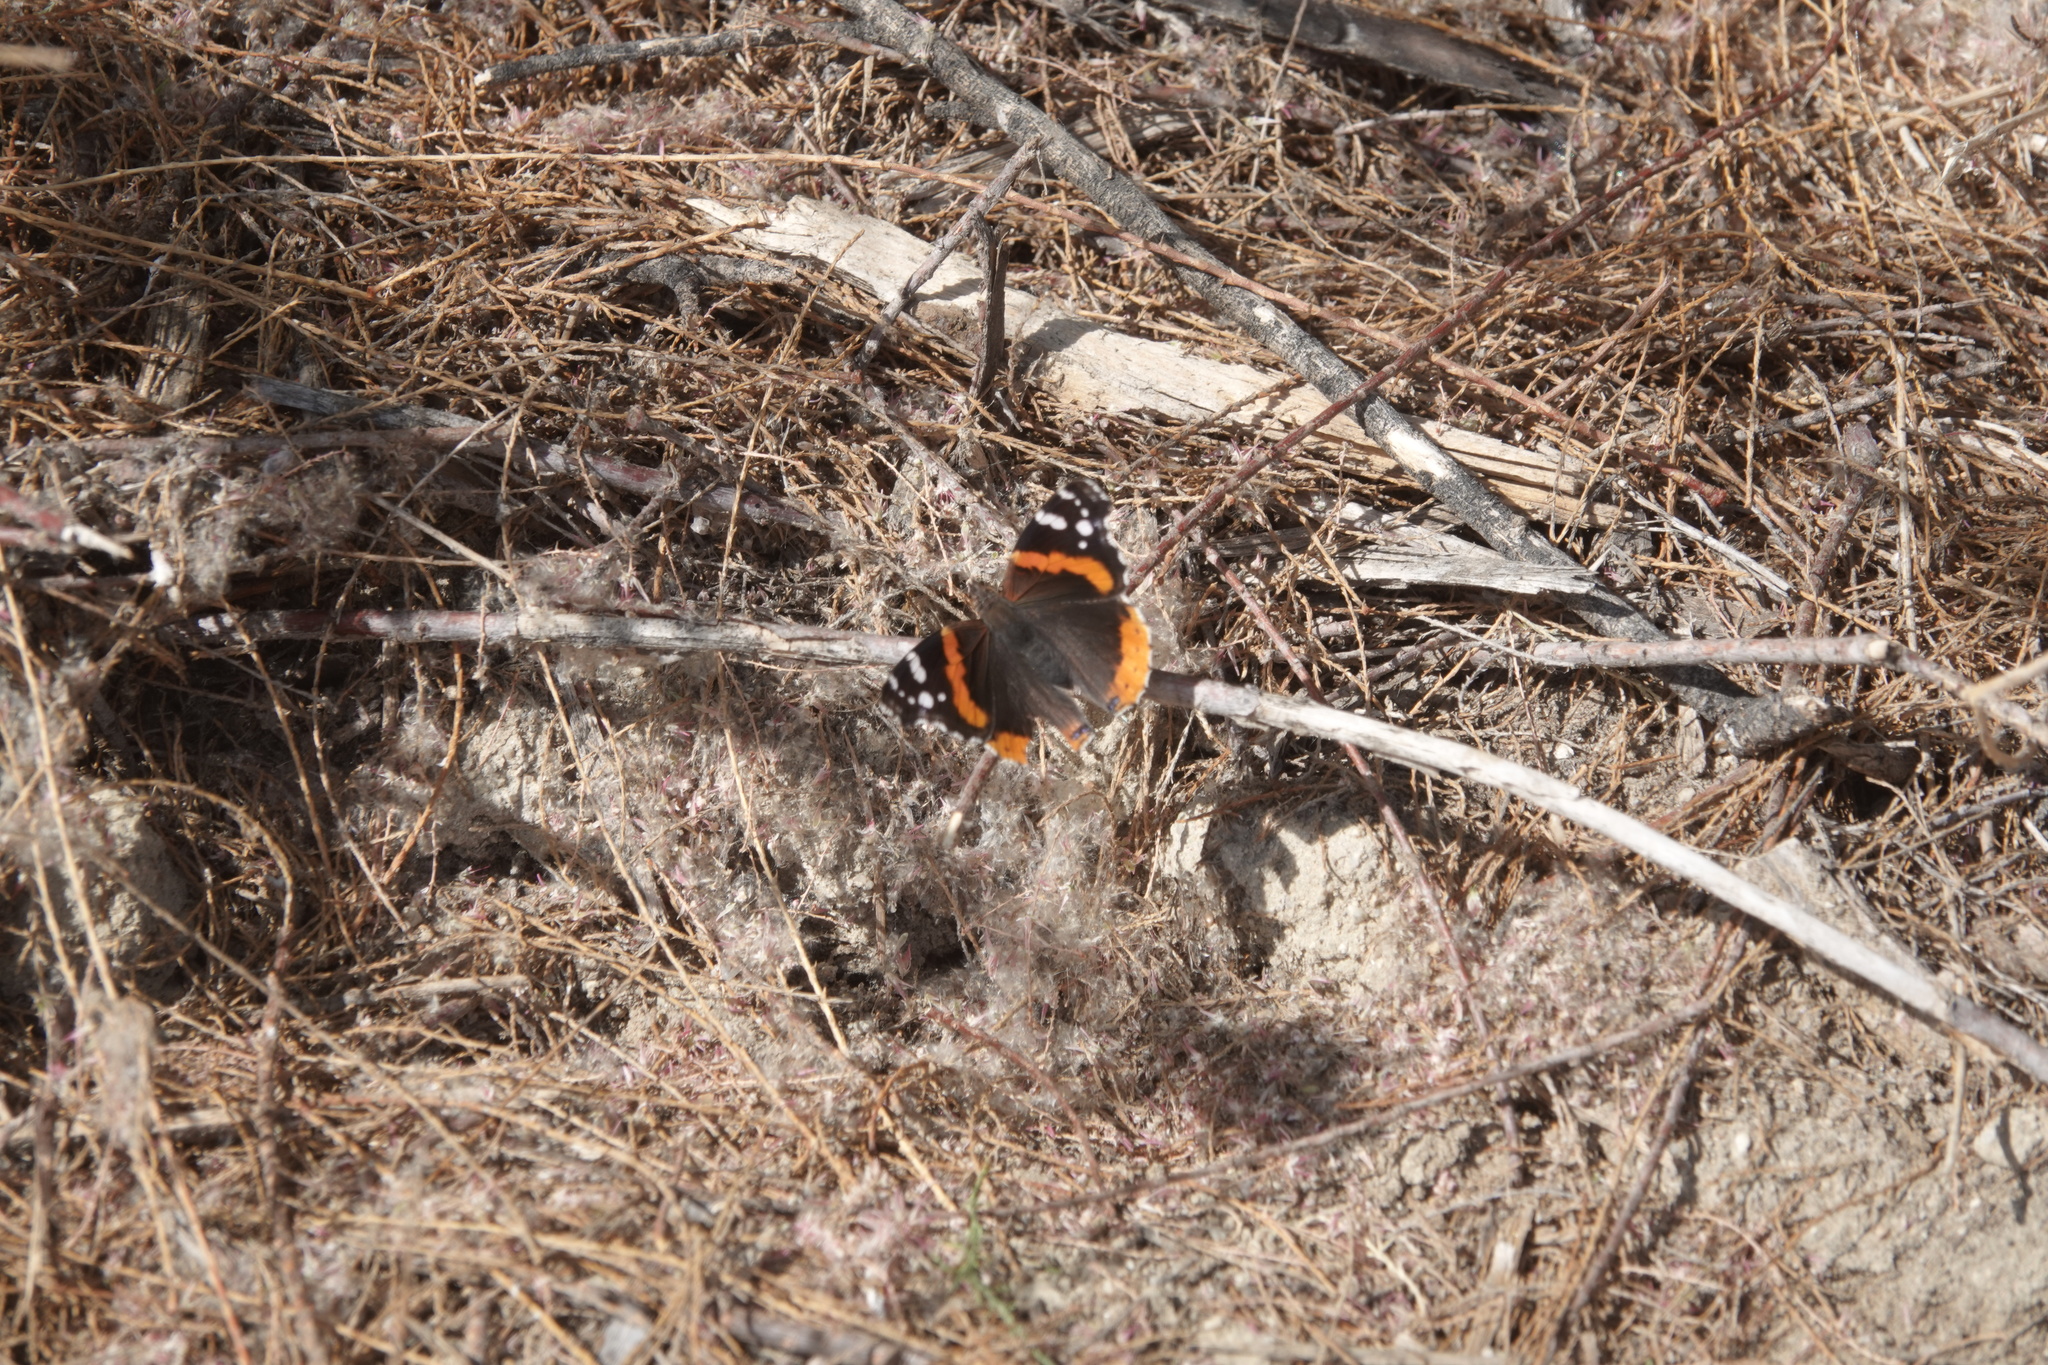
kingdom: Animalia
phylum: Arthropoda
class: Insecta
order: Lepidoptera
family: Nymphalidae
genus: Vanessa
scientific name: Vanessa atalanta
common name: Red admiral
